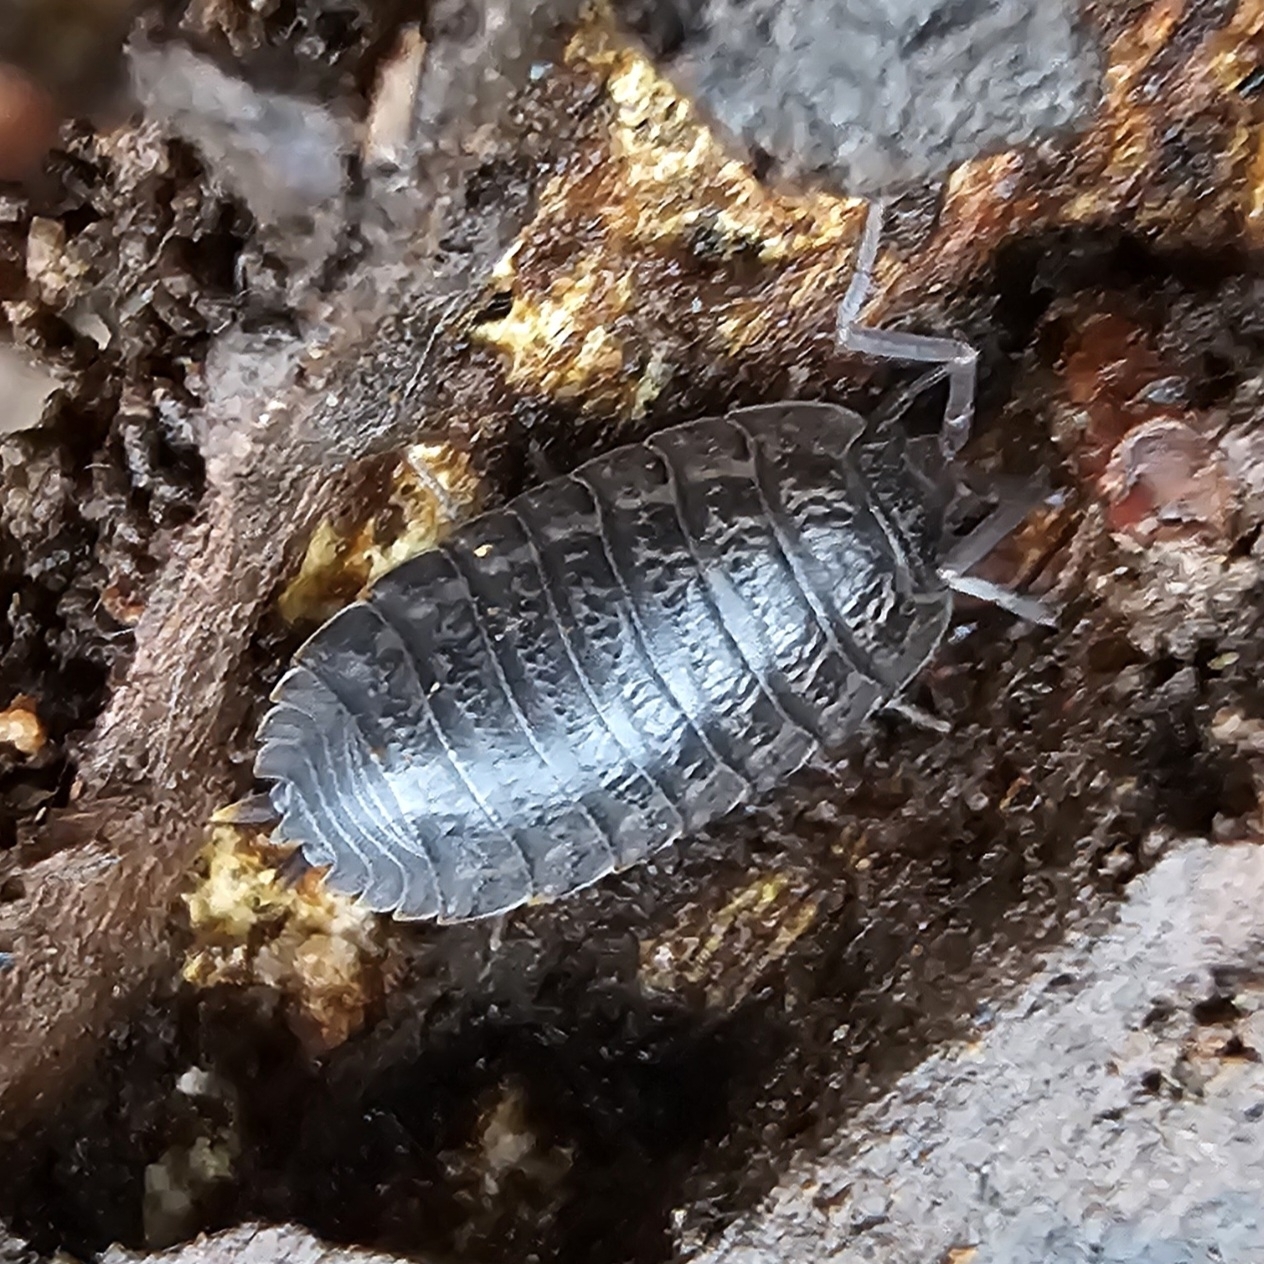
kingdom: Animalia
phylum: Arthropoda
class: Malacostraca
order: Isopoda
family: Trachelipodidae
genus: Trachelipus
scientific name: Trachelipus rathkii
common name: Isopod
